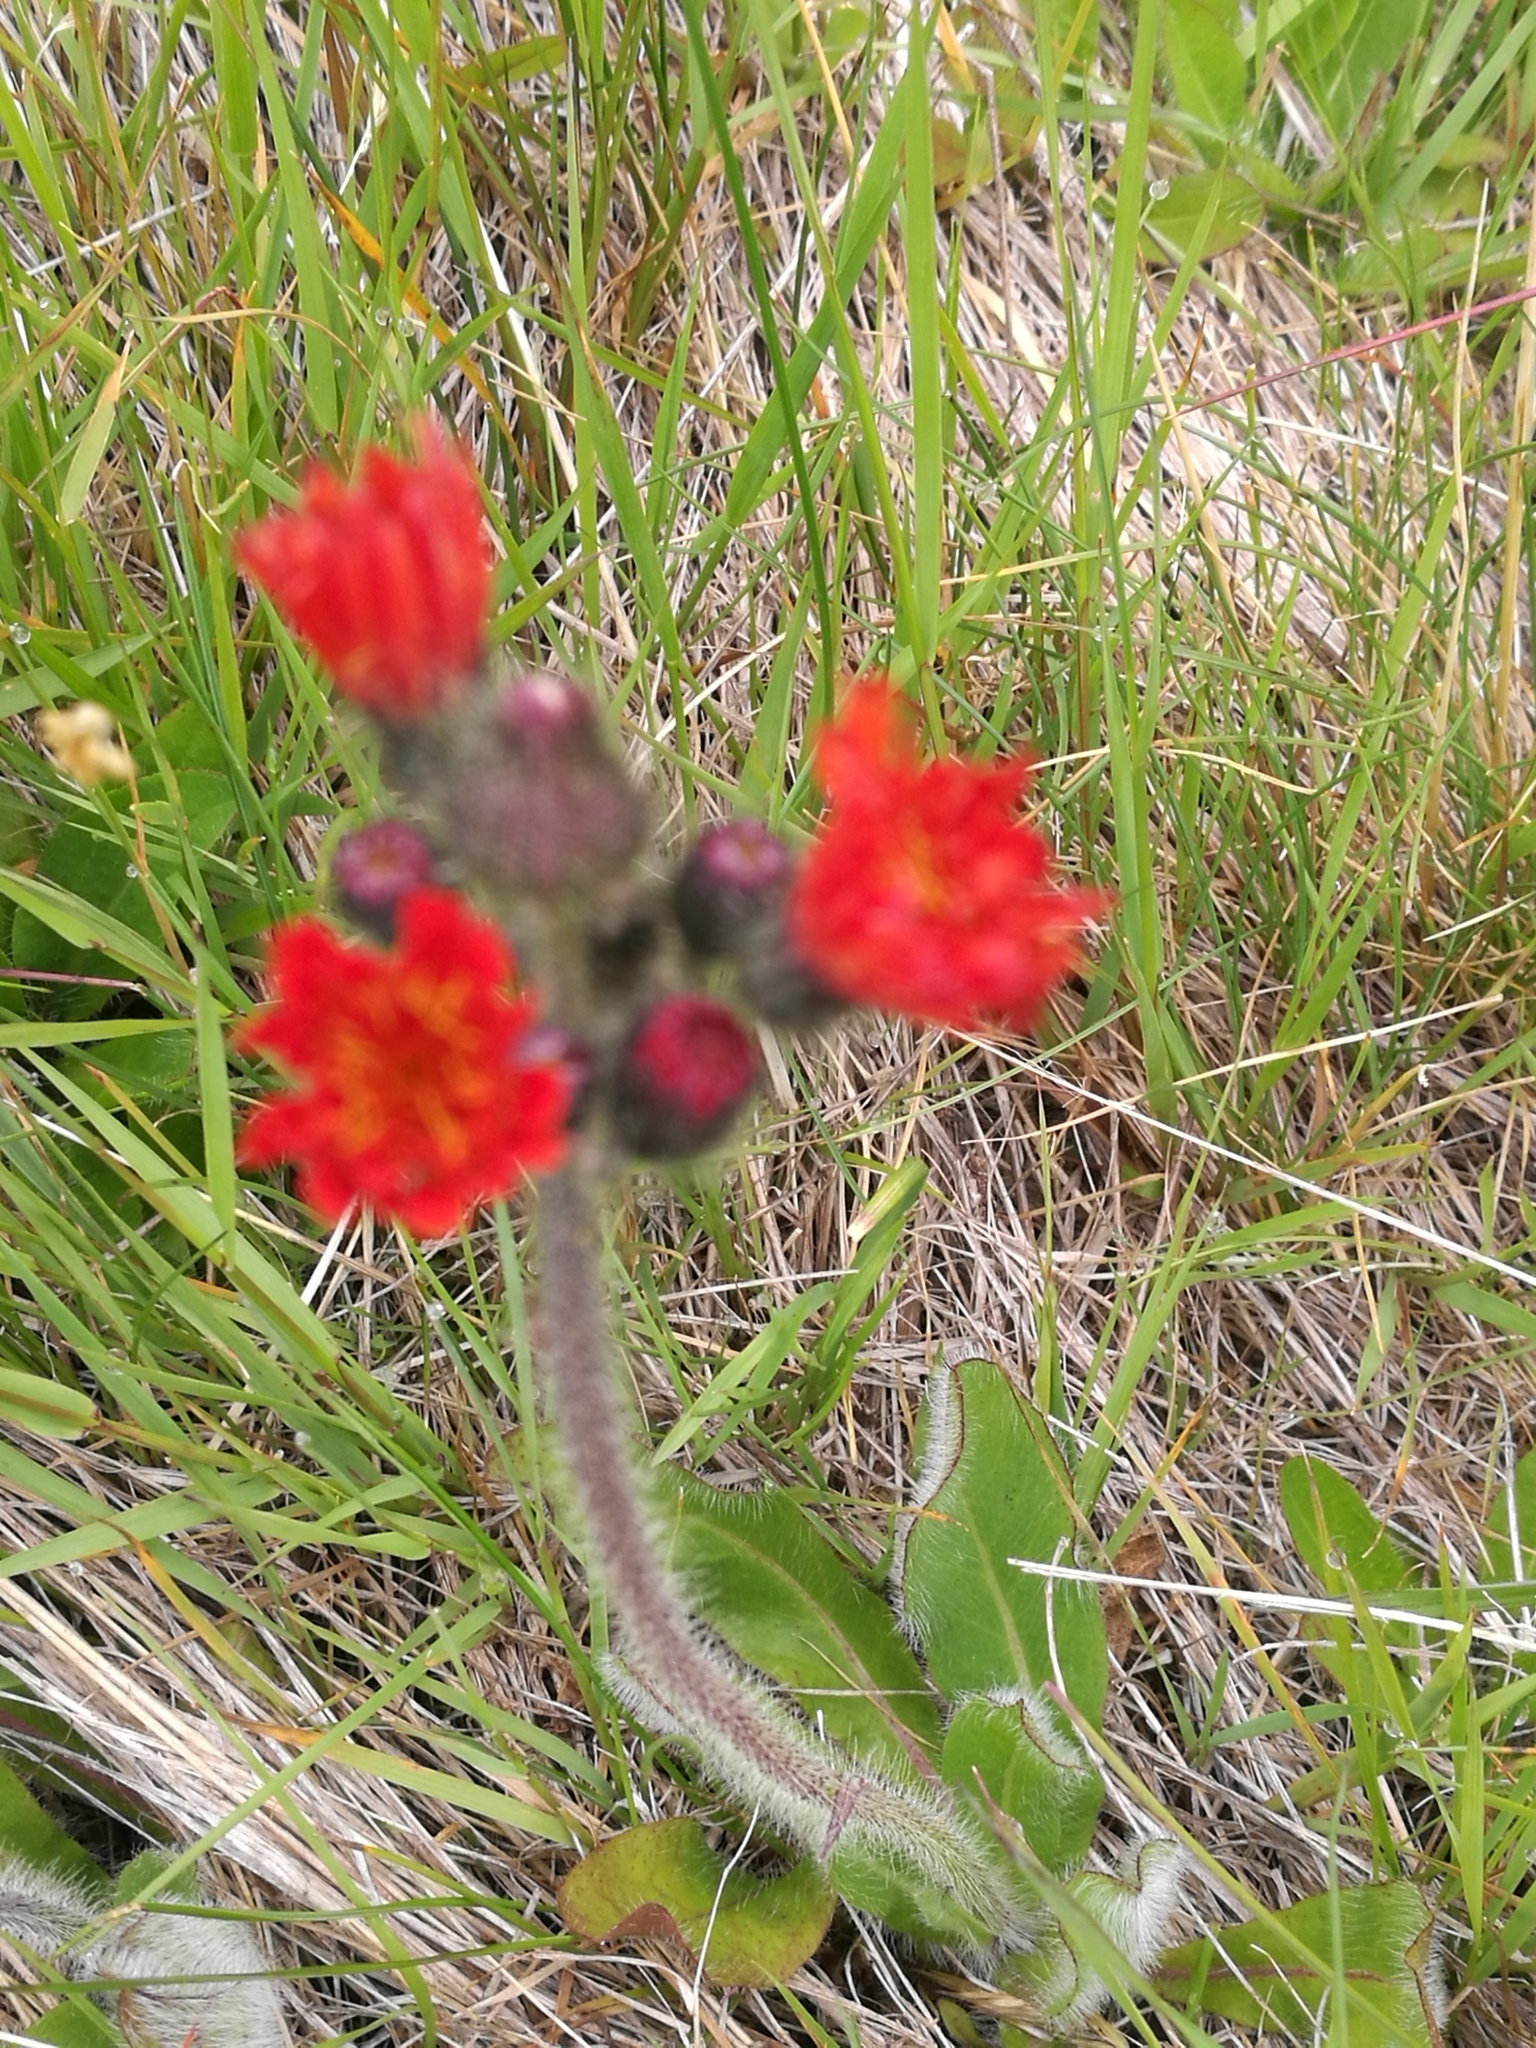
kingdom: Plantae
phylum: Tracheophyta
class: Magnoliopsida
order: Asterales
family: Asteraceae
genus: Pilosella
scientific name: Pilosella aurantiaca
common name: Fox-and-cubs
